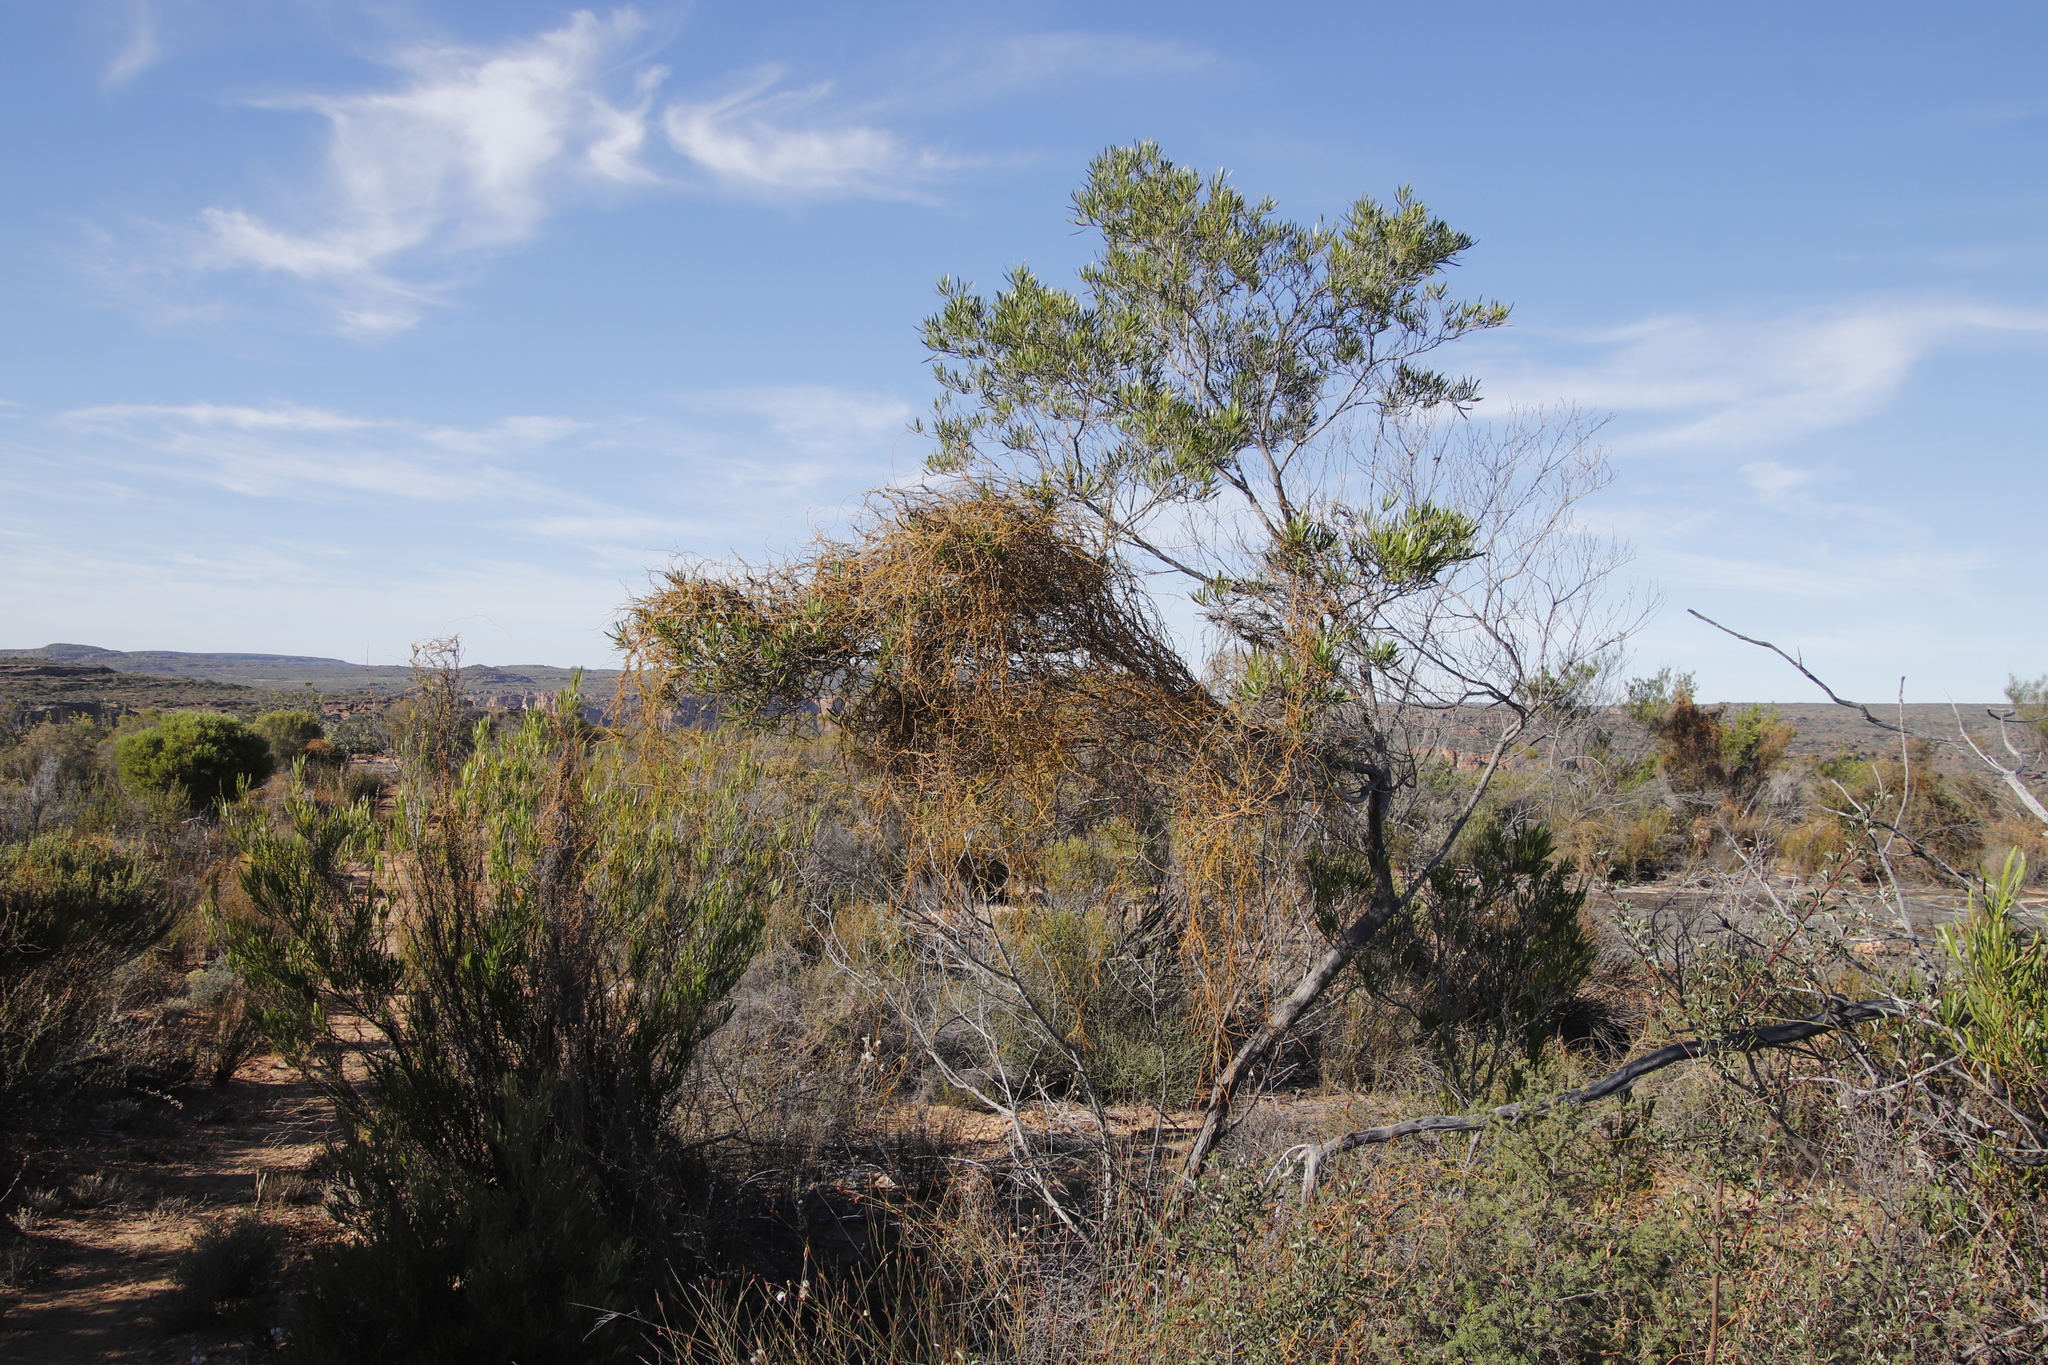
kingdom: Plantae
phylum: Tracheophyta
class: Magnoliopsida
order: Laurales
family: Lauraceae
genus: Cassytha
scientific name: Cassytha ciliolata
